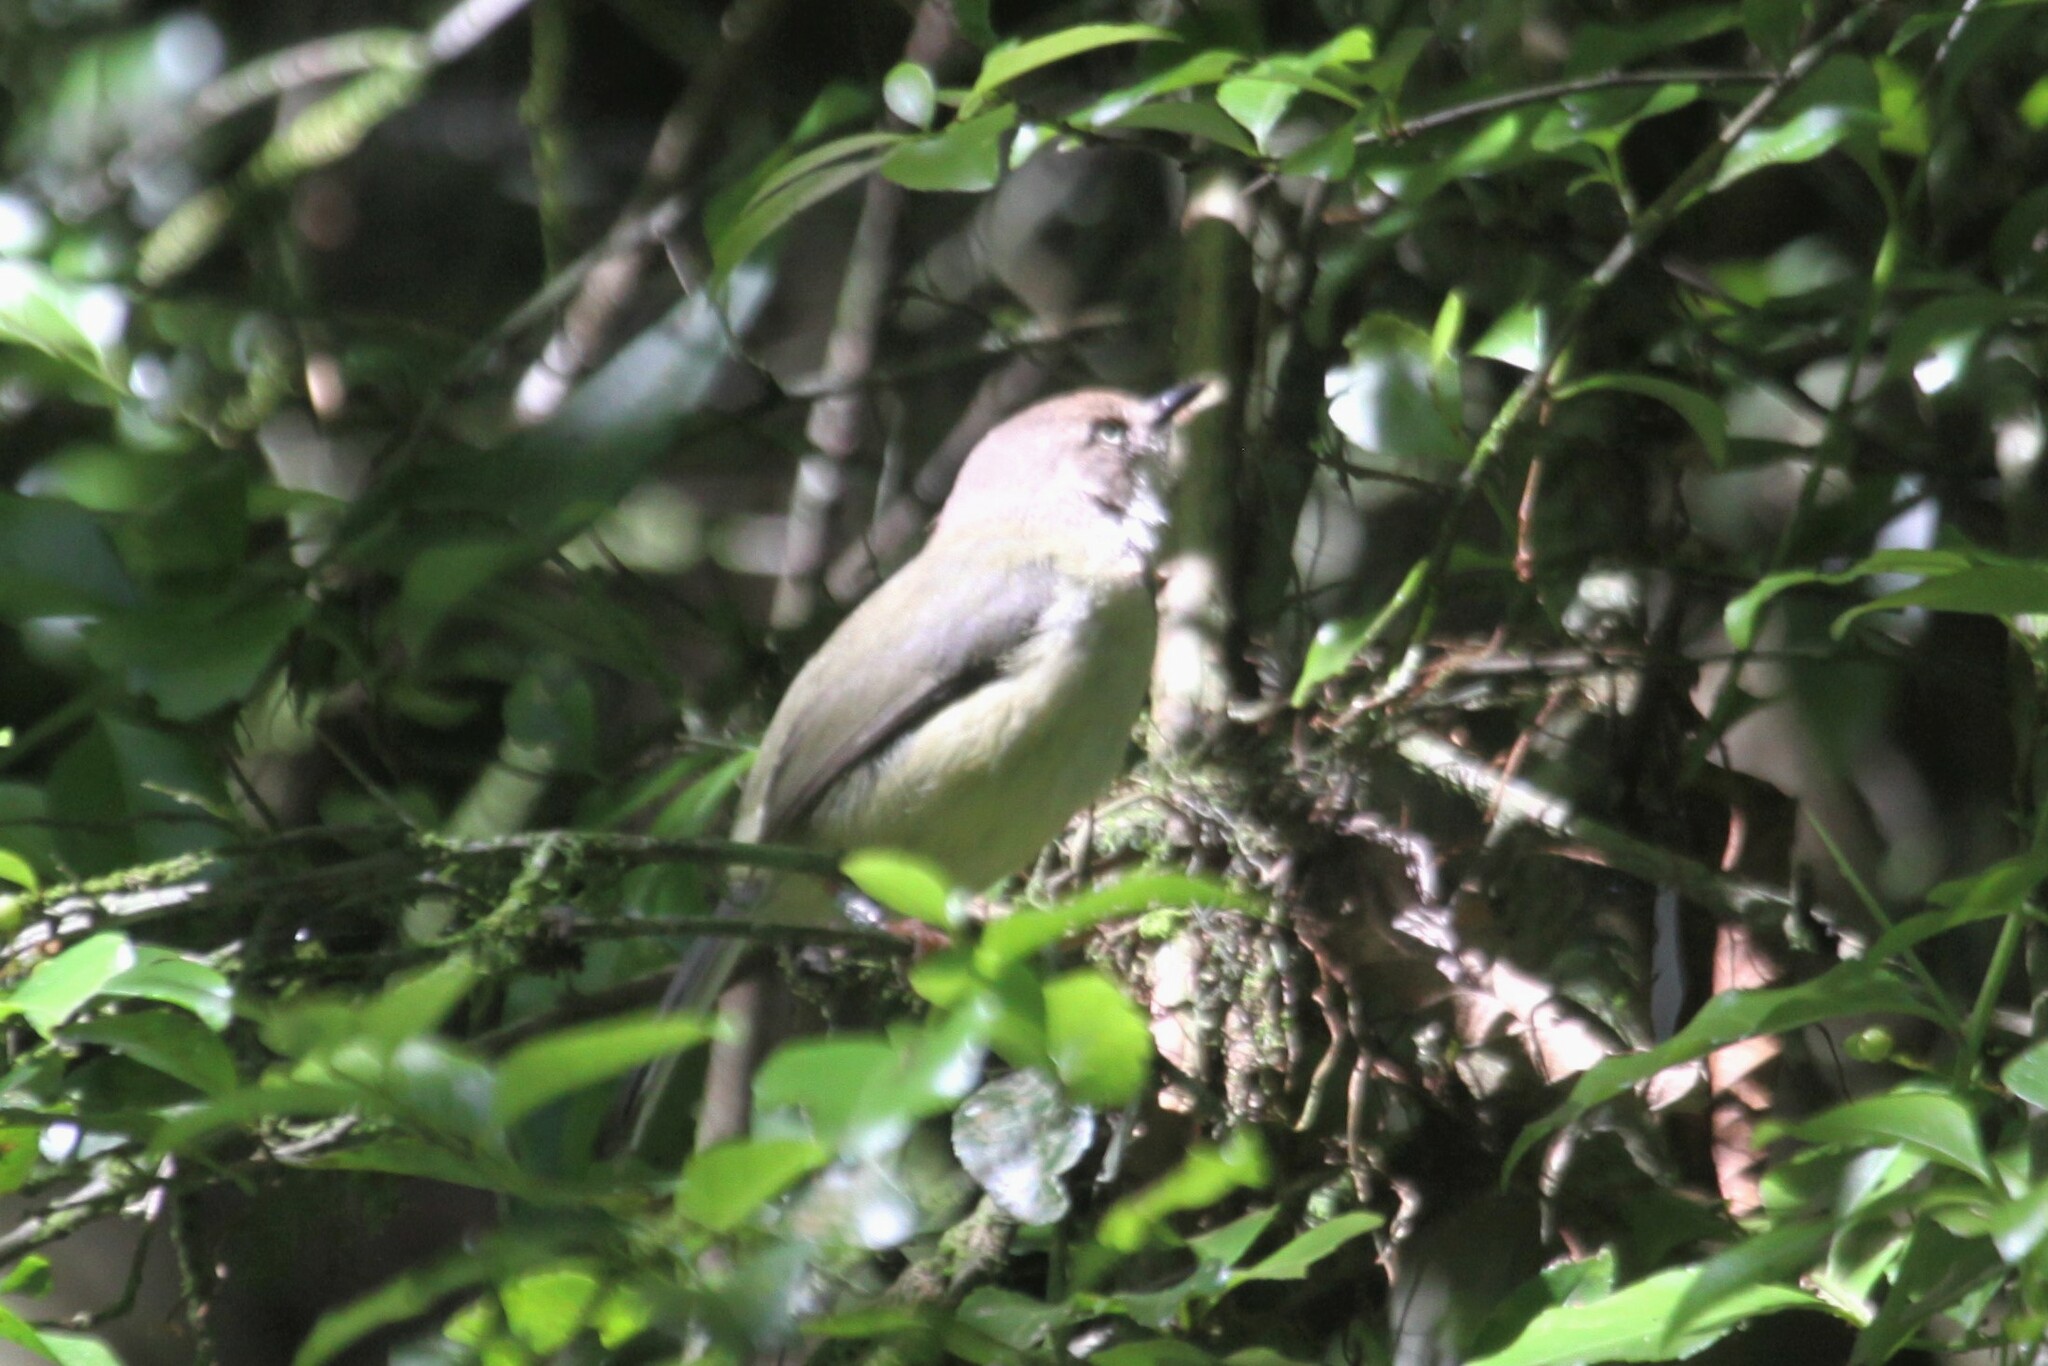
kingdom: Animalia
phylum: Chordata
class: Aves
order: Passeriformes
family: Cisticolidae
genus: Apalis
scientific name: Apalis chirindensis
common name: Chirinda apalis
